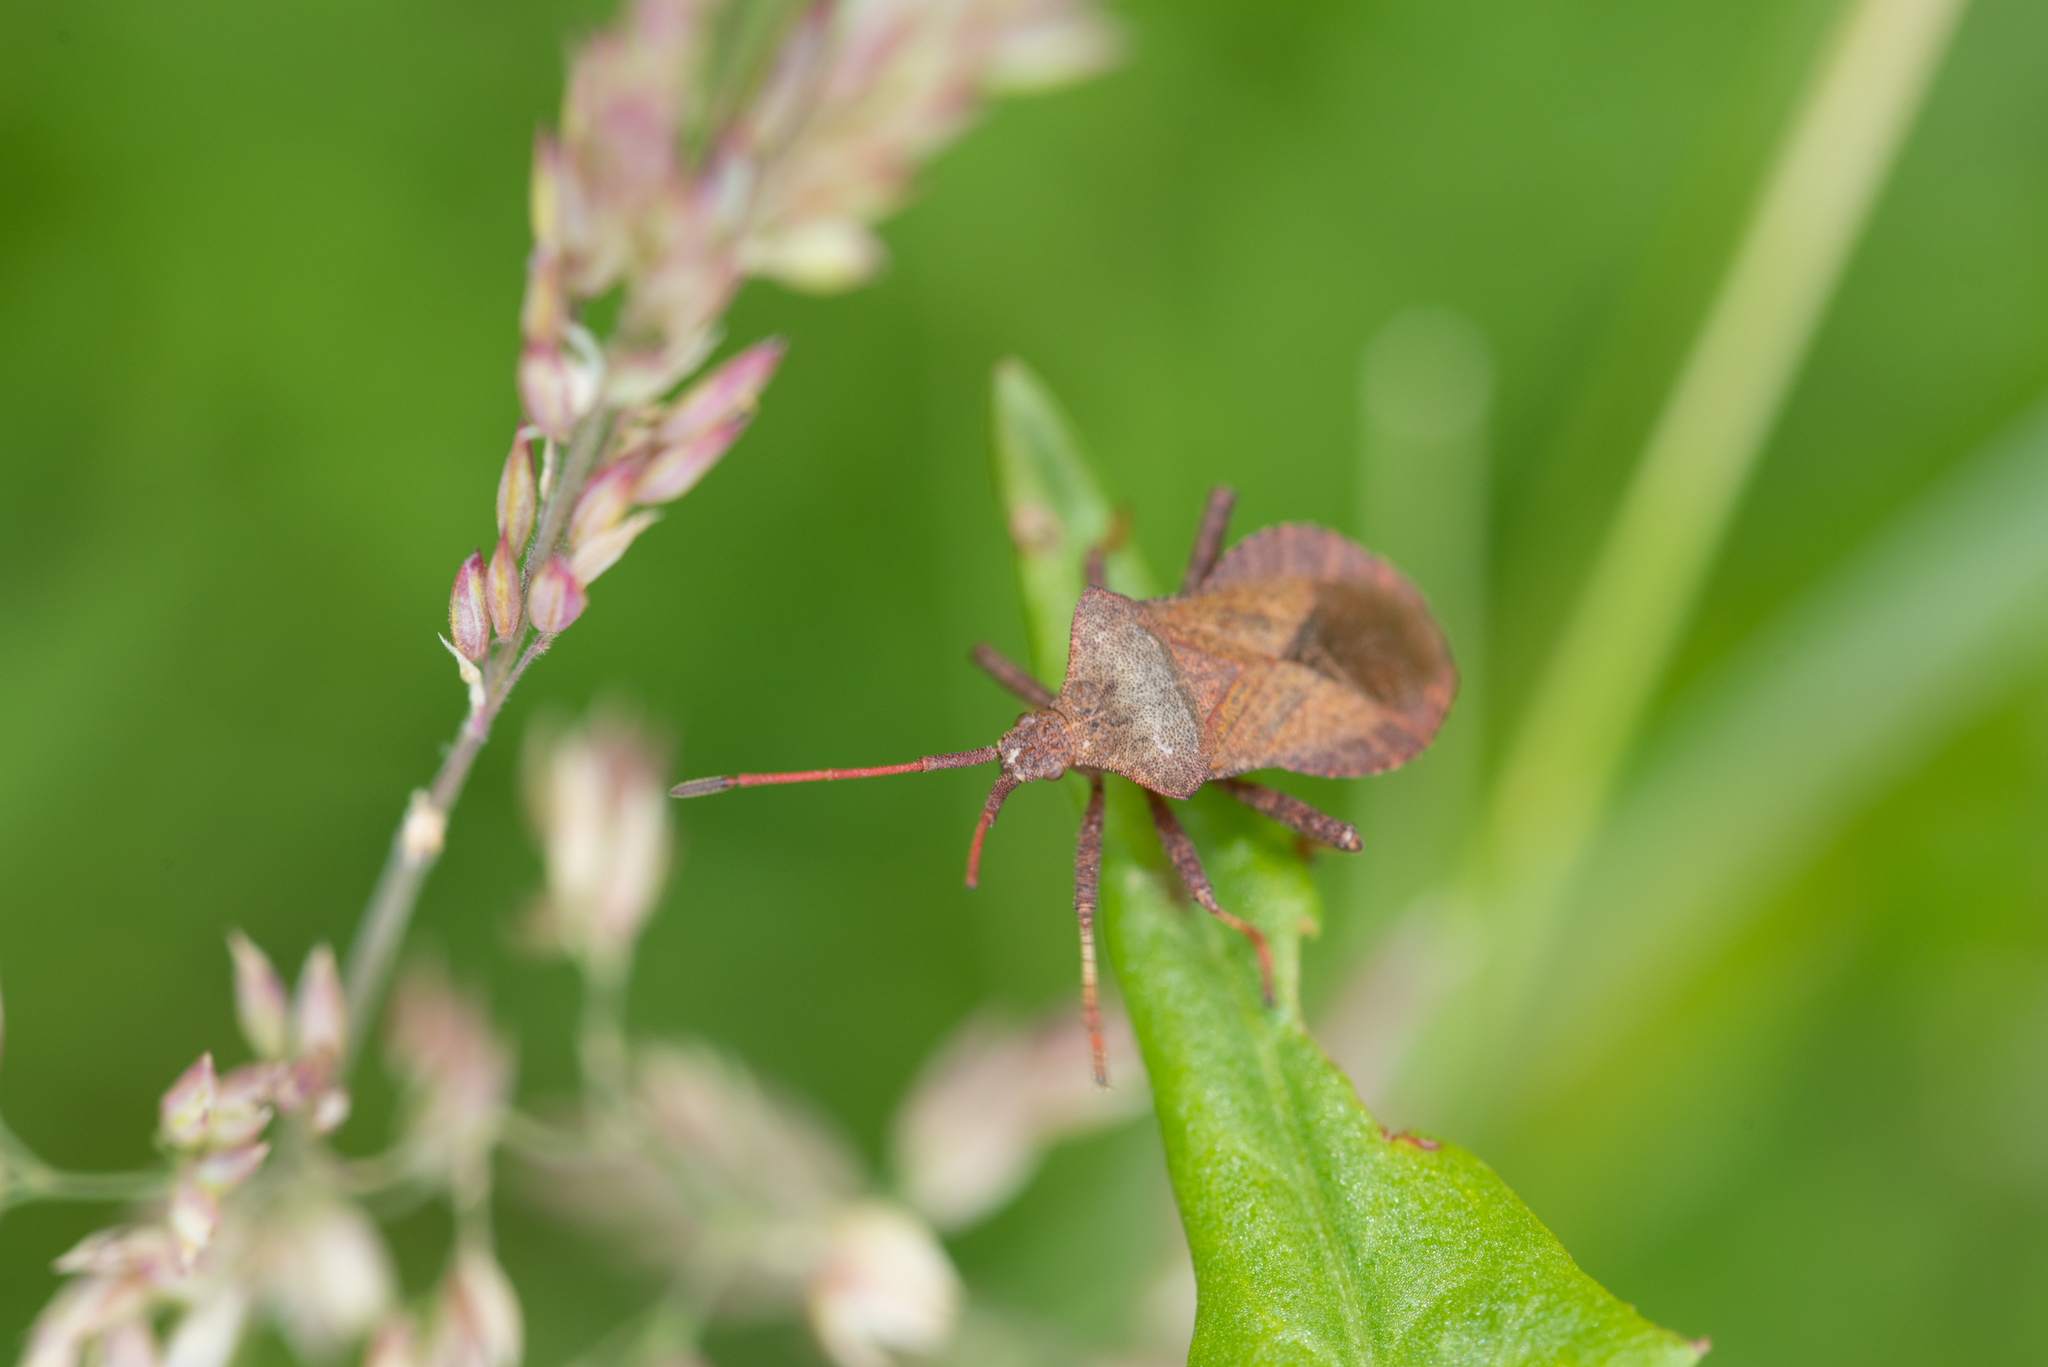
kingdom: Animalia
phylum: Arthropoda
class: Insecta
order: Hemiptera
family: Coreidae
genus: Coreus
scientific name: Coreus marginatus
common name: Dock bug
